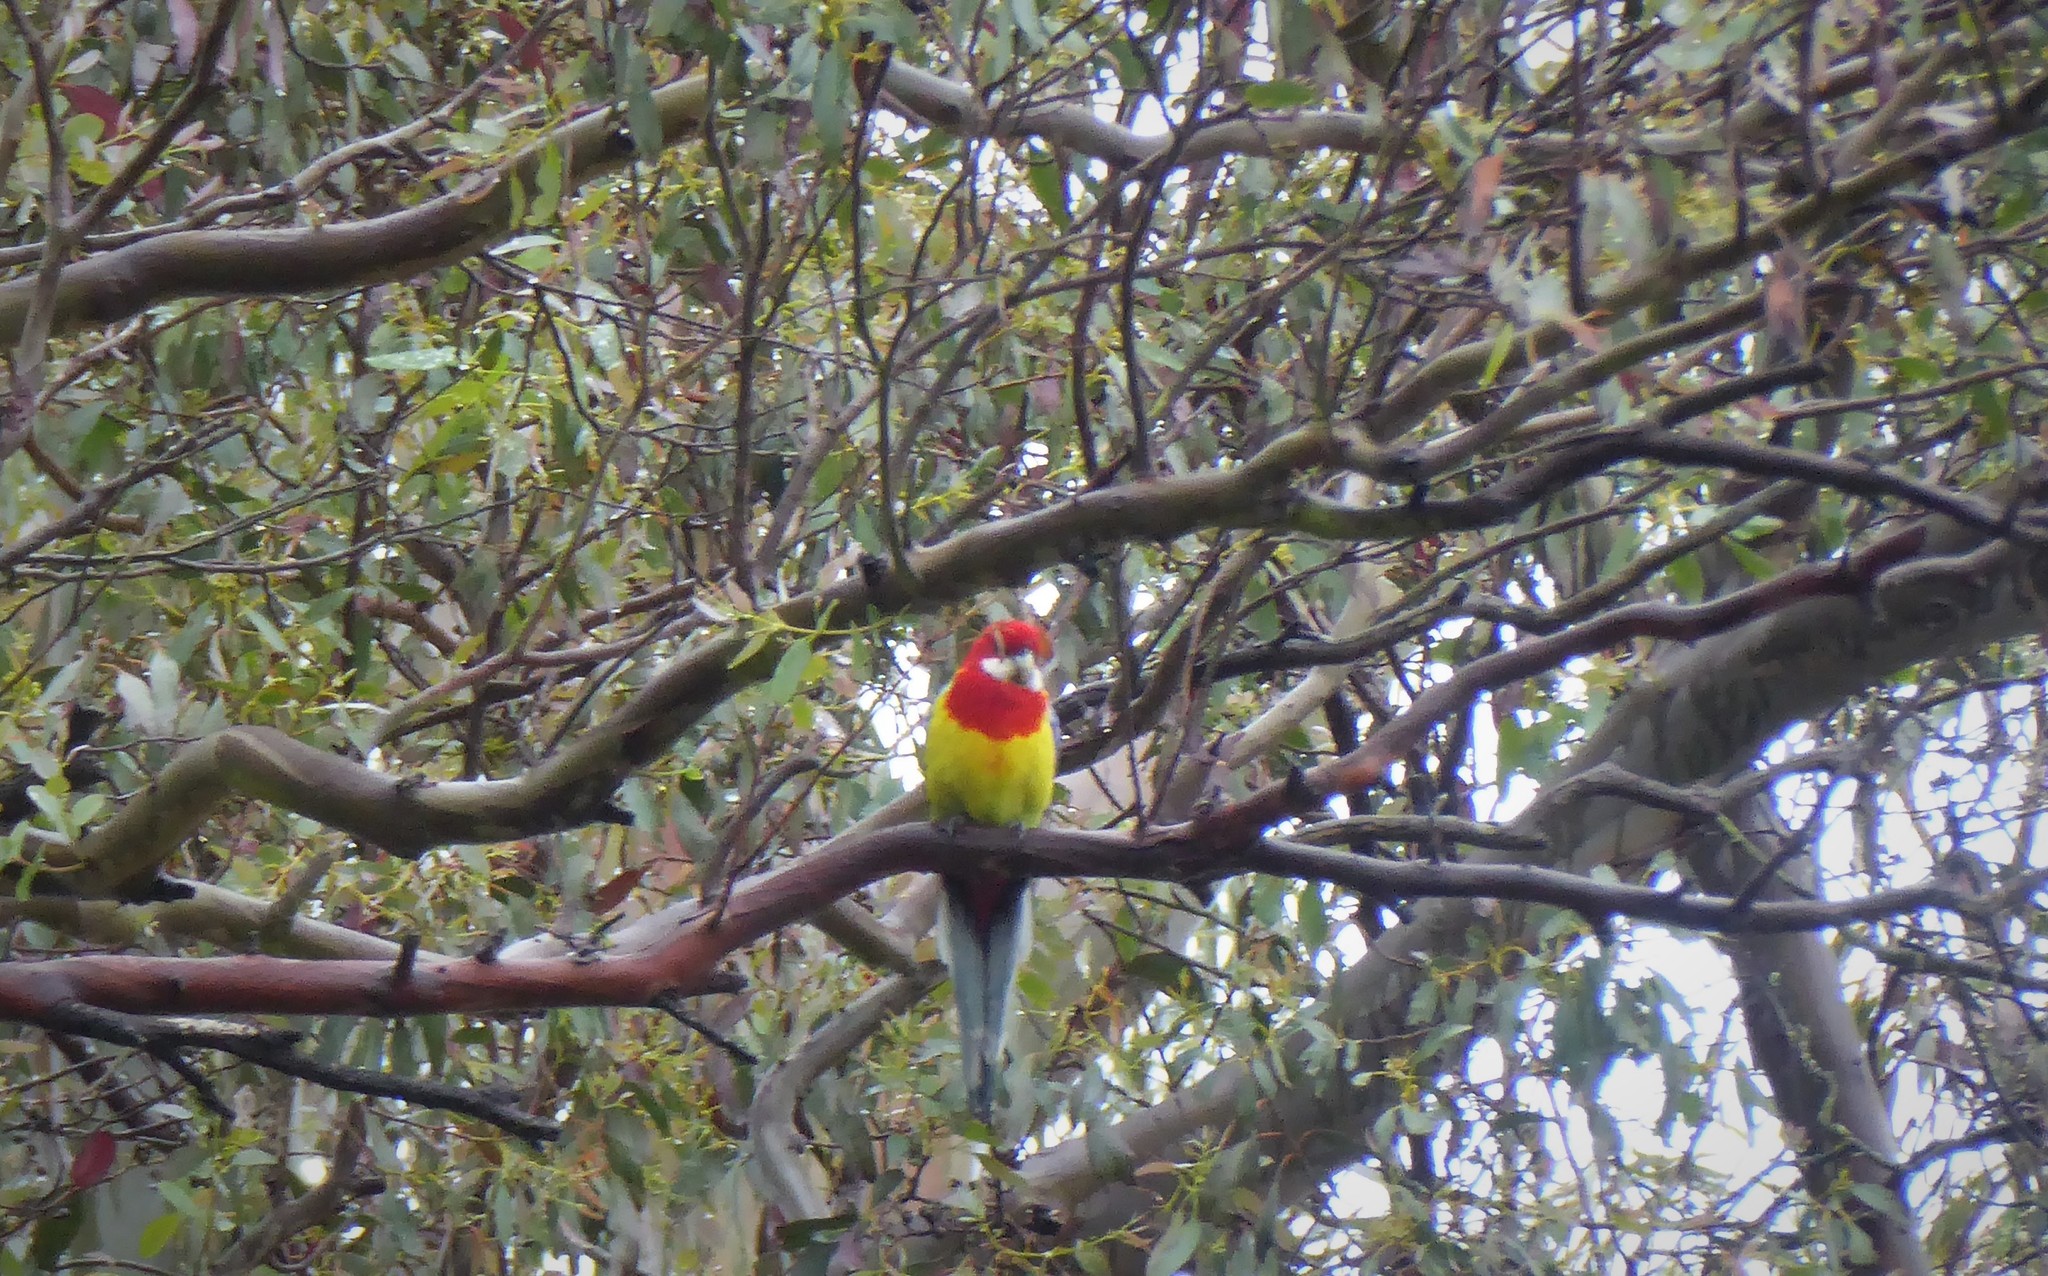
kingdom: Animalia
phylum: Chordata
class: Aves
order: Psittaciformes
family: Psittacidae
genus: Platycercus
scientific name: Platycercus eximius
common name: Eastern rosella
